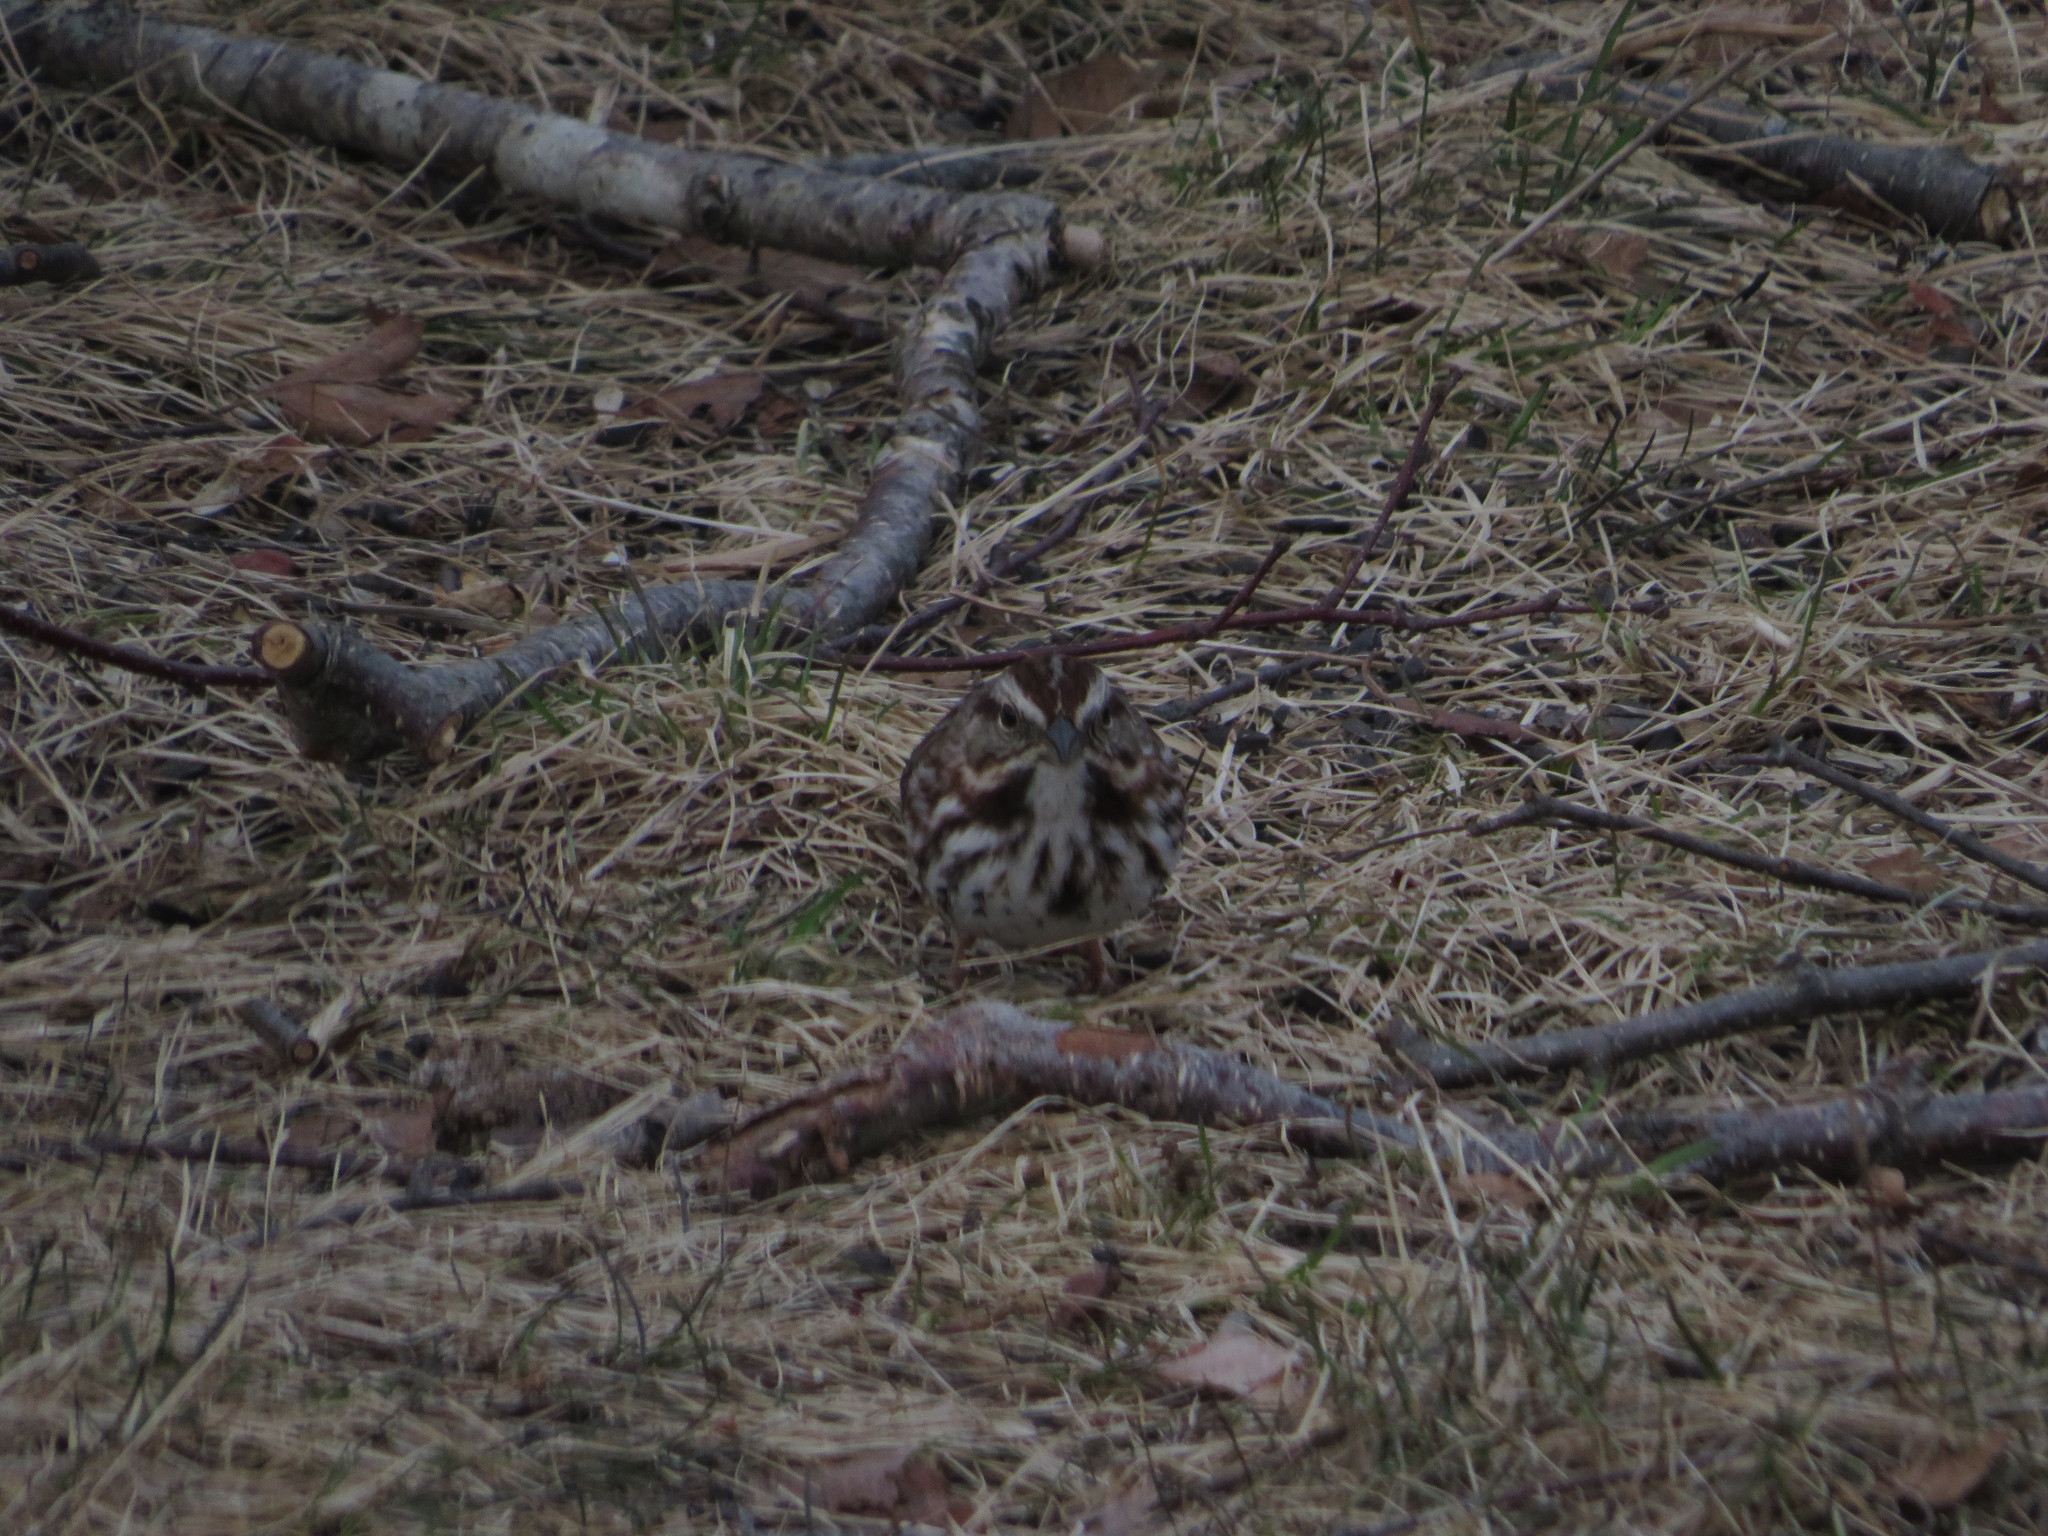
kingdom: Animalia
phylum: Chordata
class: Aves
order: Passeriformes
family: Passerellidae
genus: Melospiza
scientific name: Melospiza melodia
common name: Song sparrow
